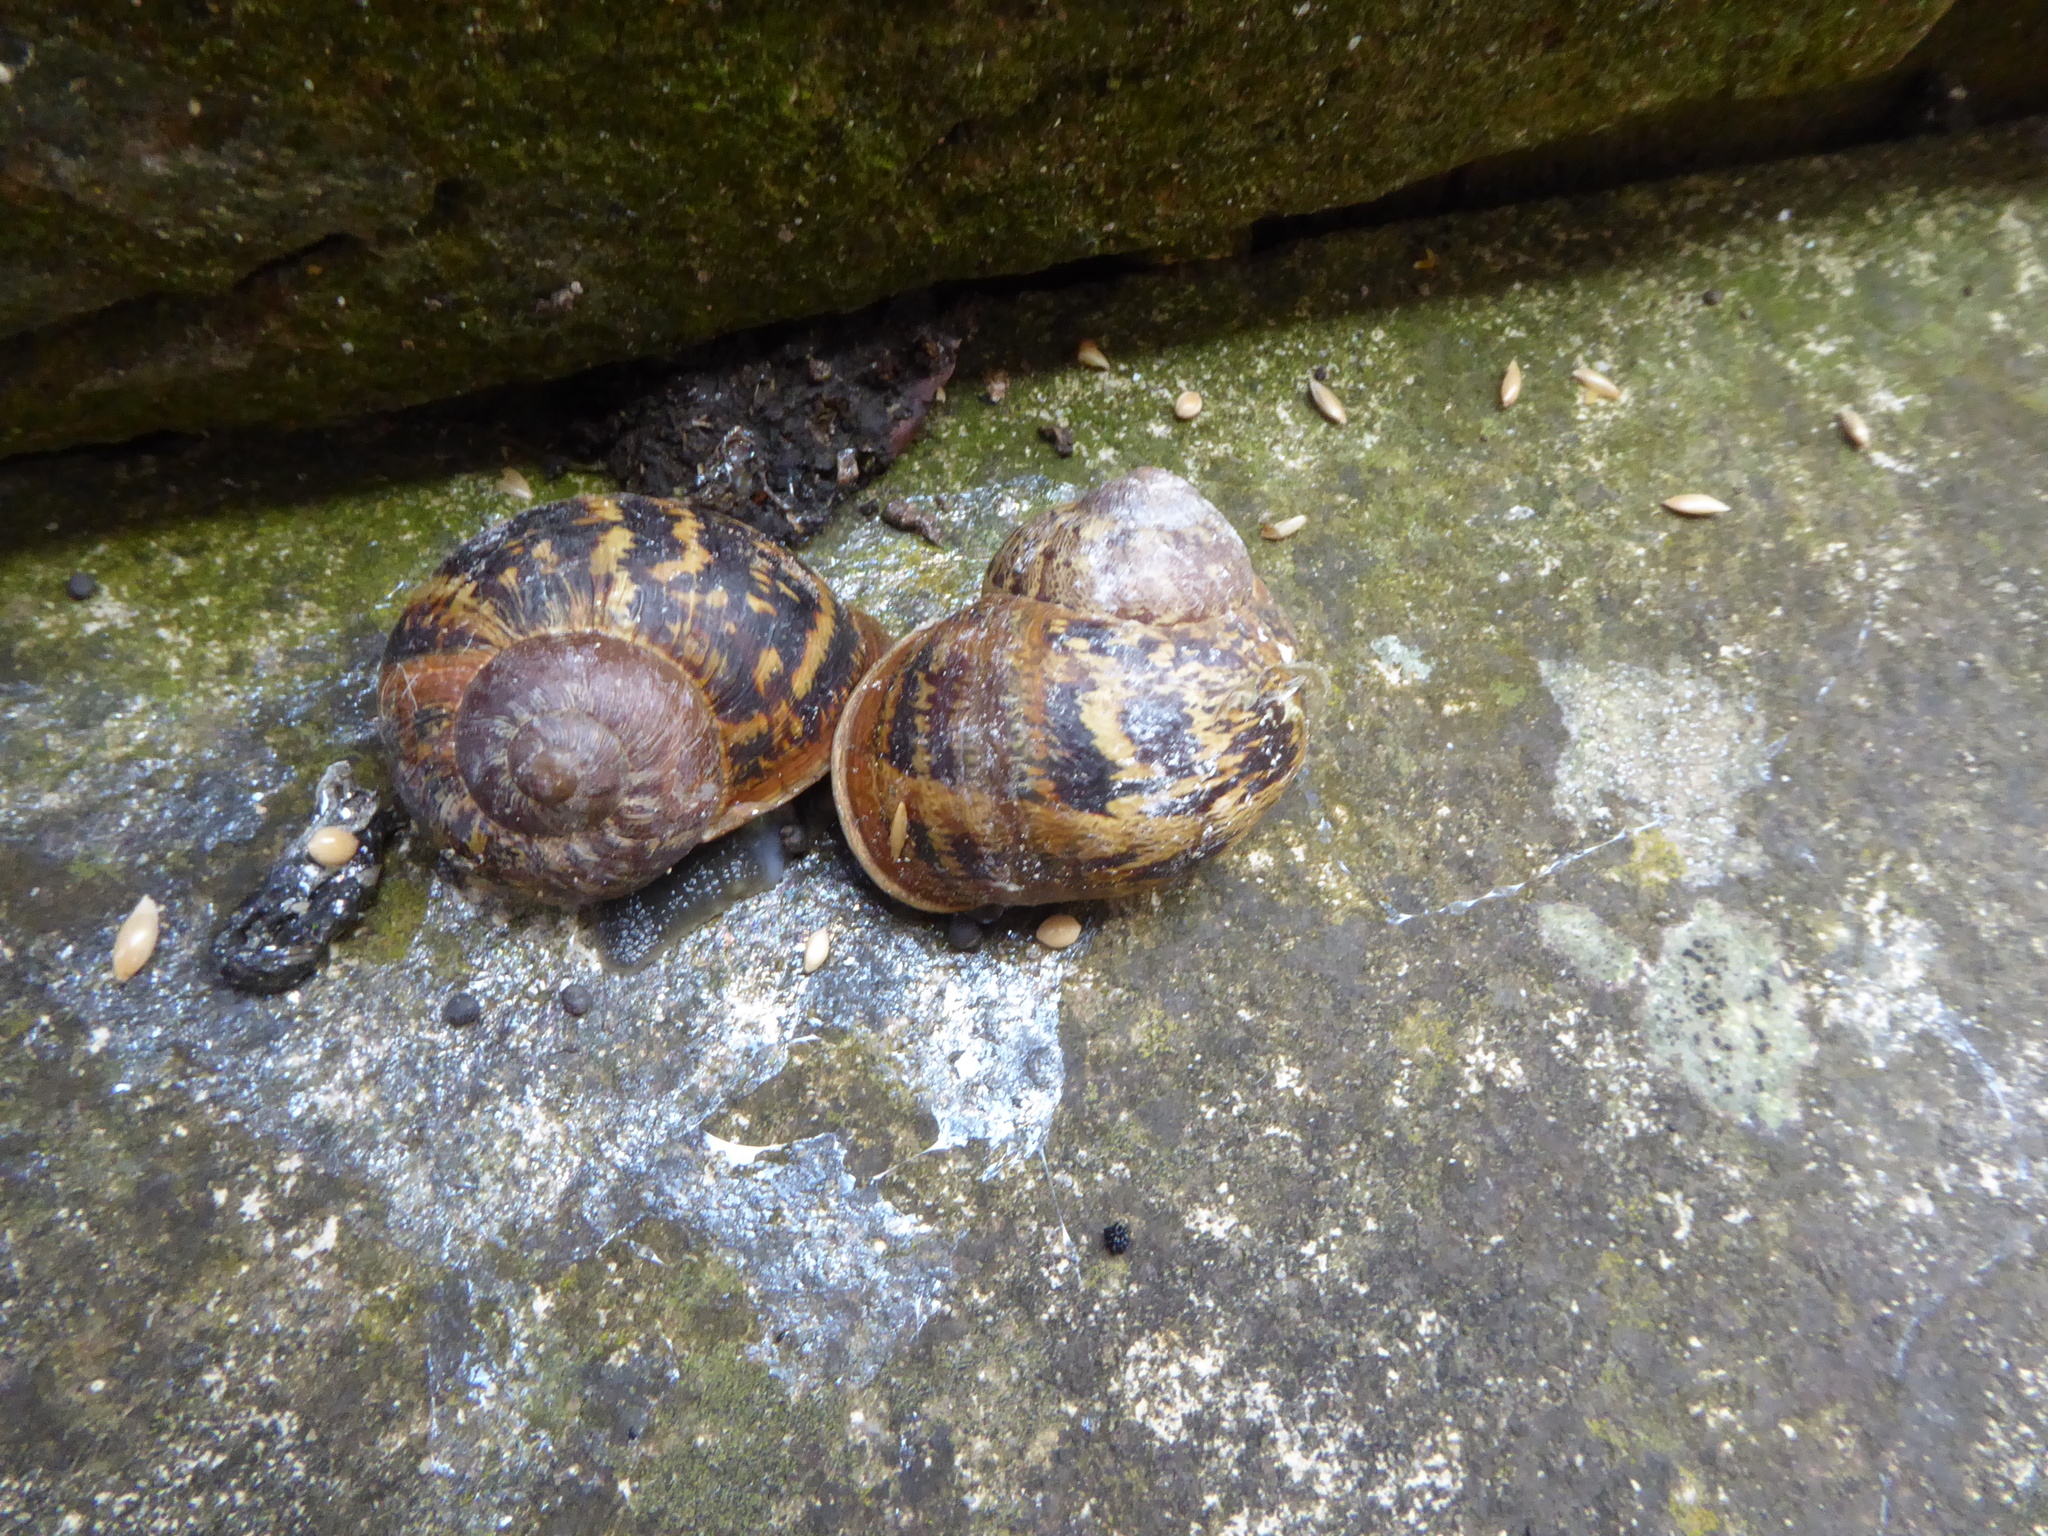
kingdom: Animalia
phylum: Mollusca
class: Gastropoda
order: Stylommatophora
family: Helicidae
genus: Cornu
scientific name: Cornu aspersum
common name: Brown garden snail
